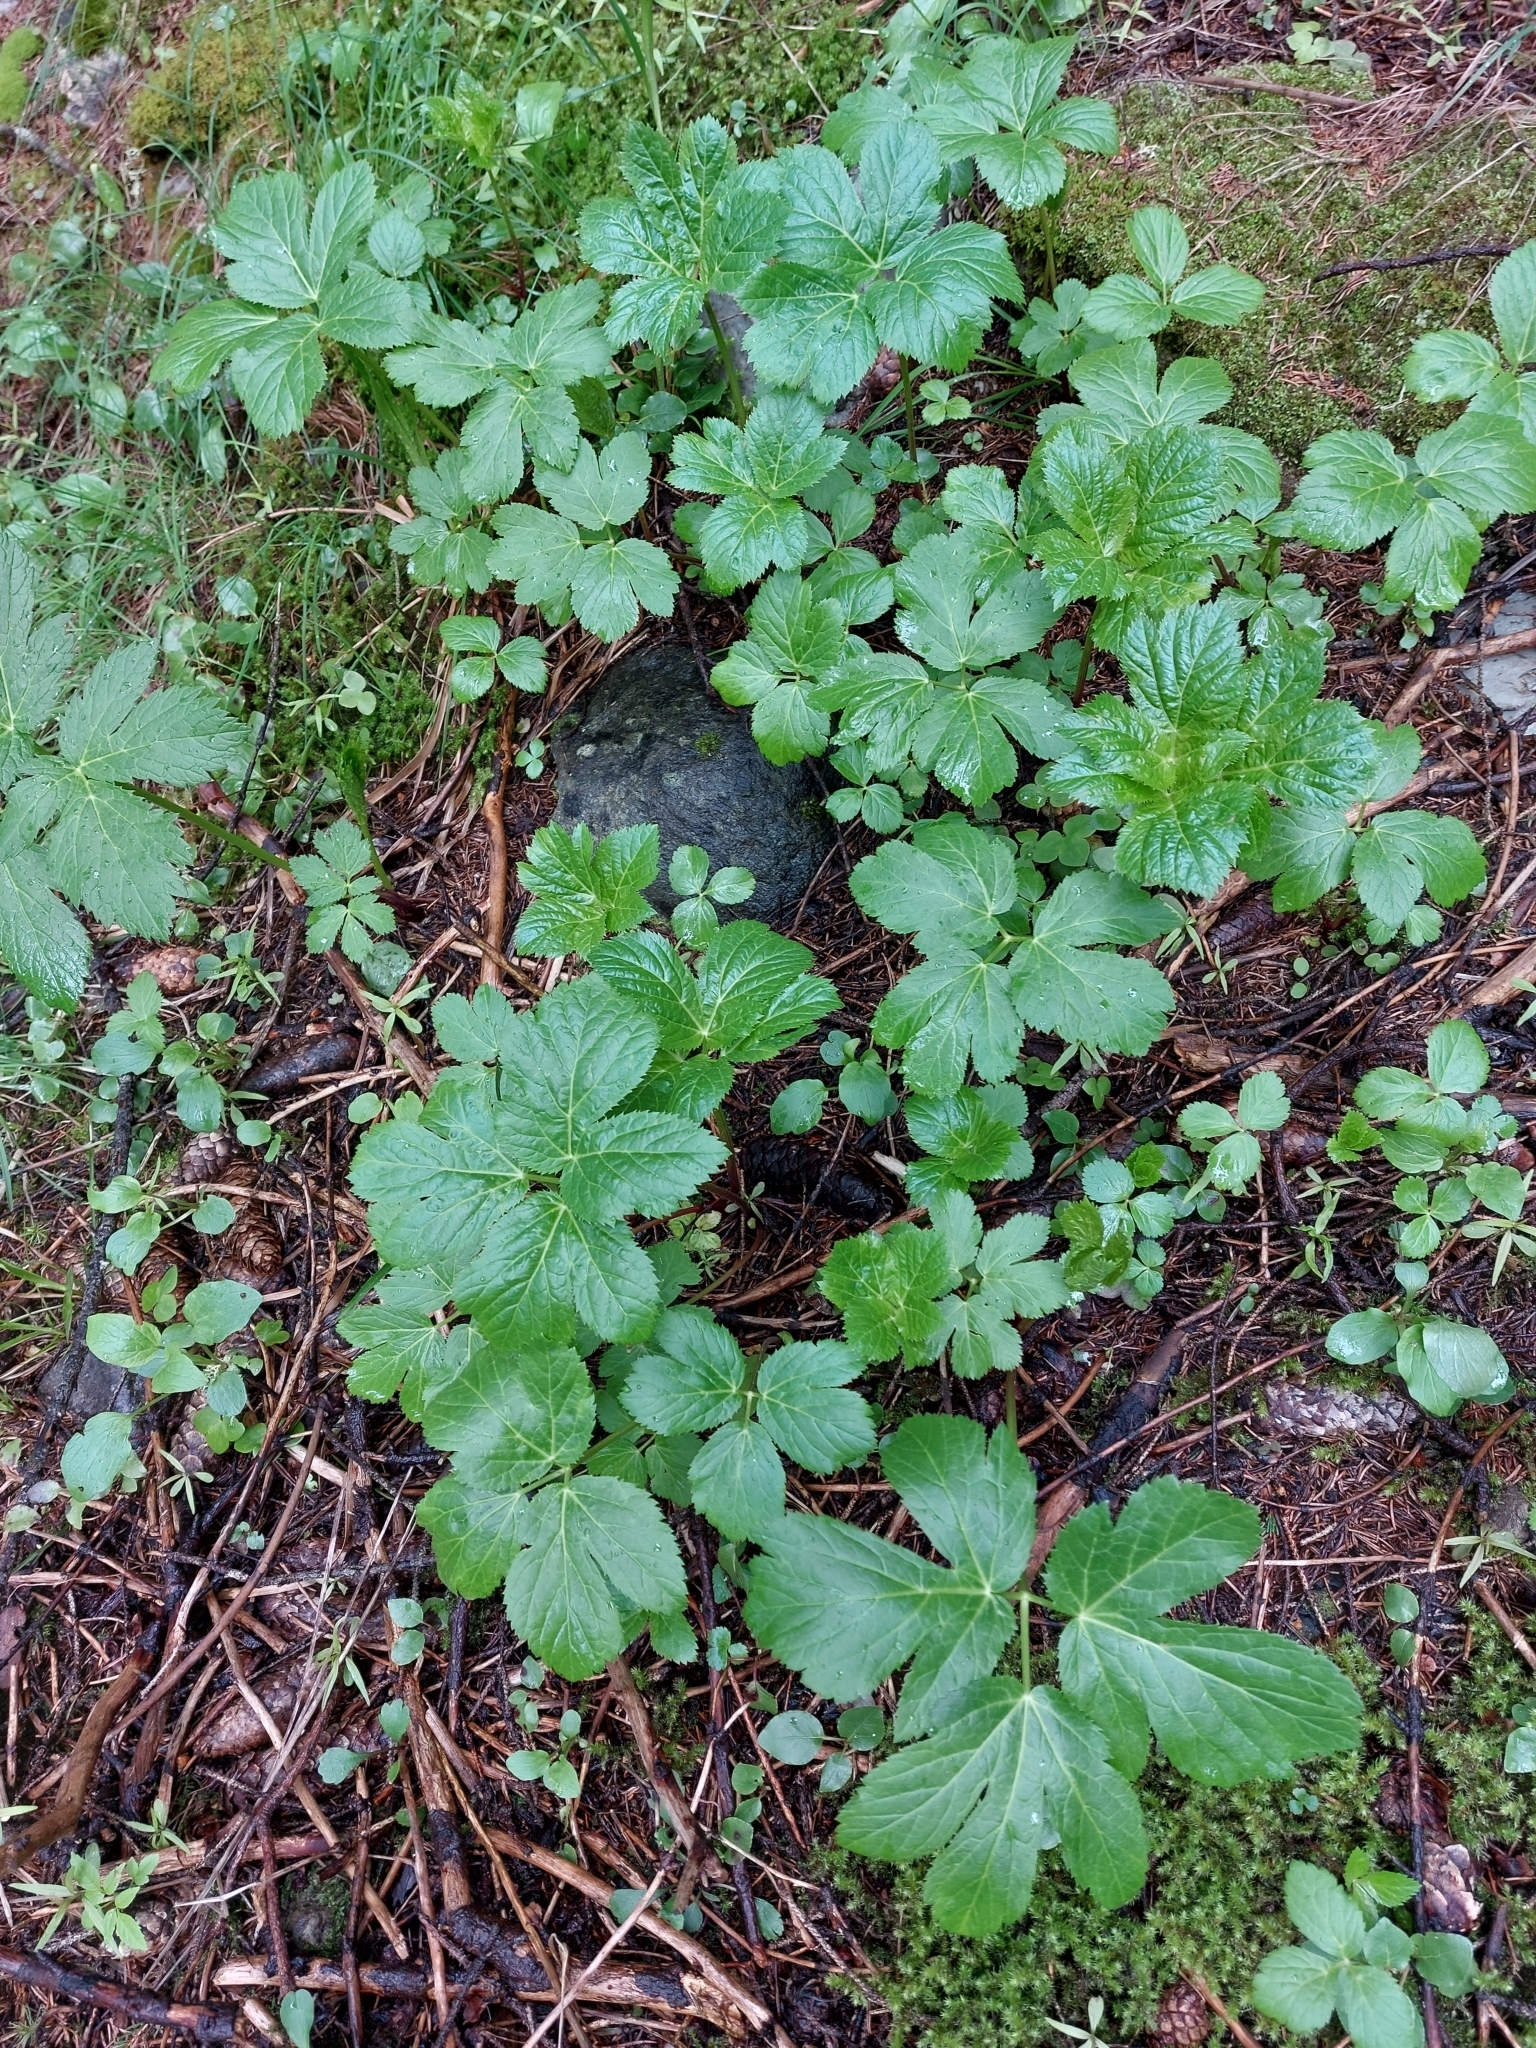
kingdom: Plantae
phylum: Tracheophyta
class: Magnoliopsida
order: Apiales
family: Apiaceae
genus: Imperatoria
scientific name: Imperatoria ostruthium
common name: Masterwort
